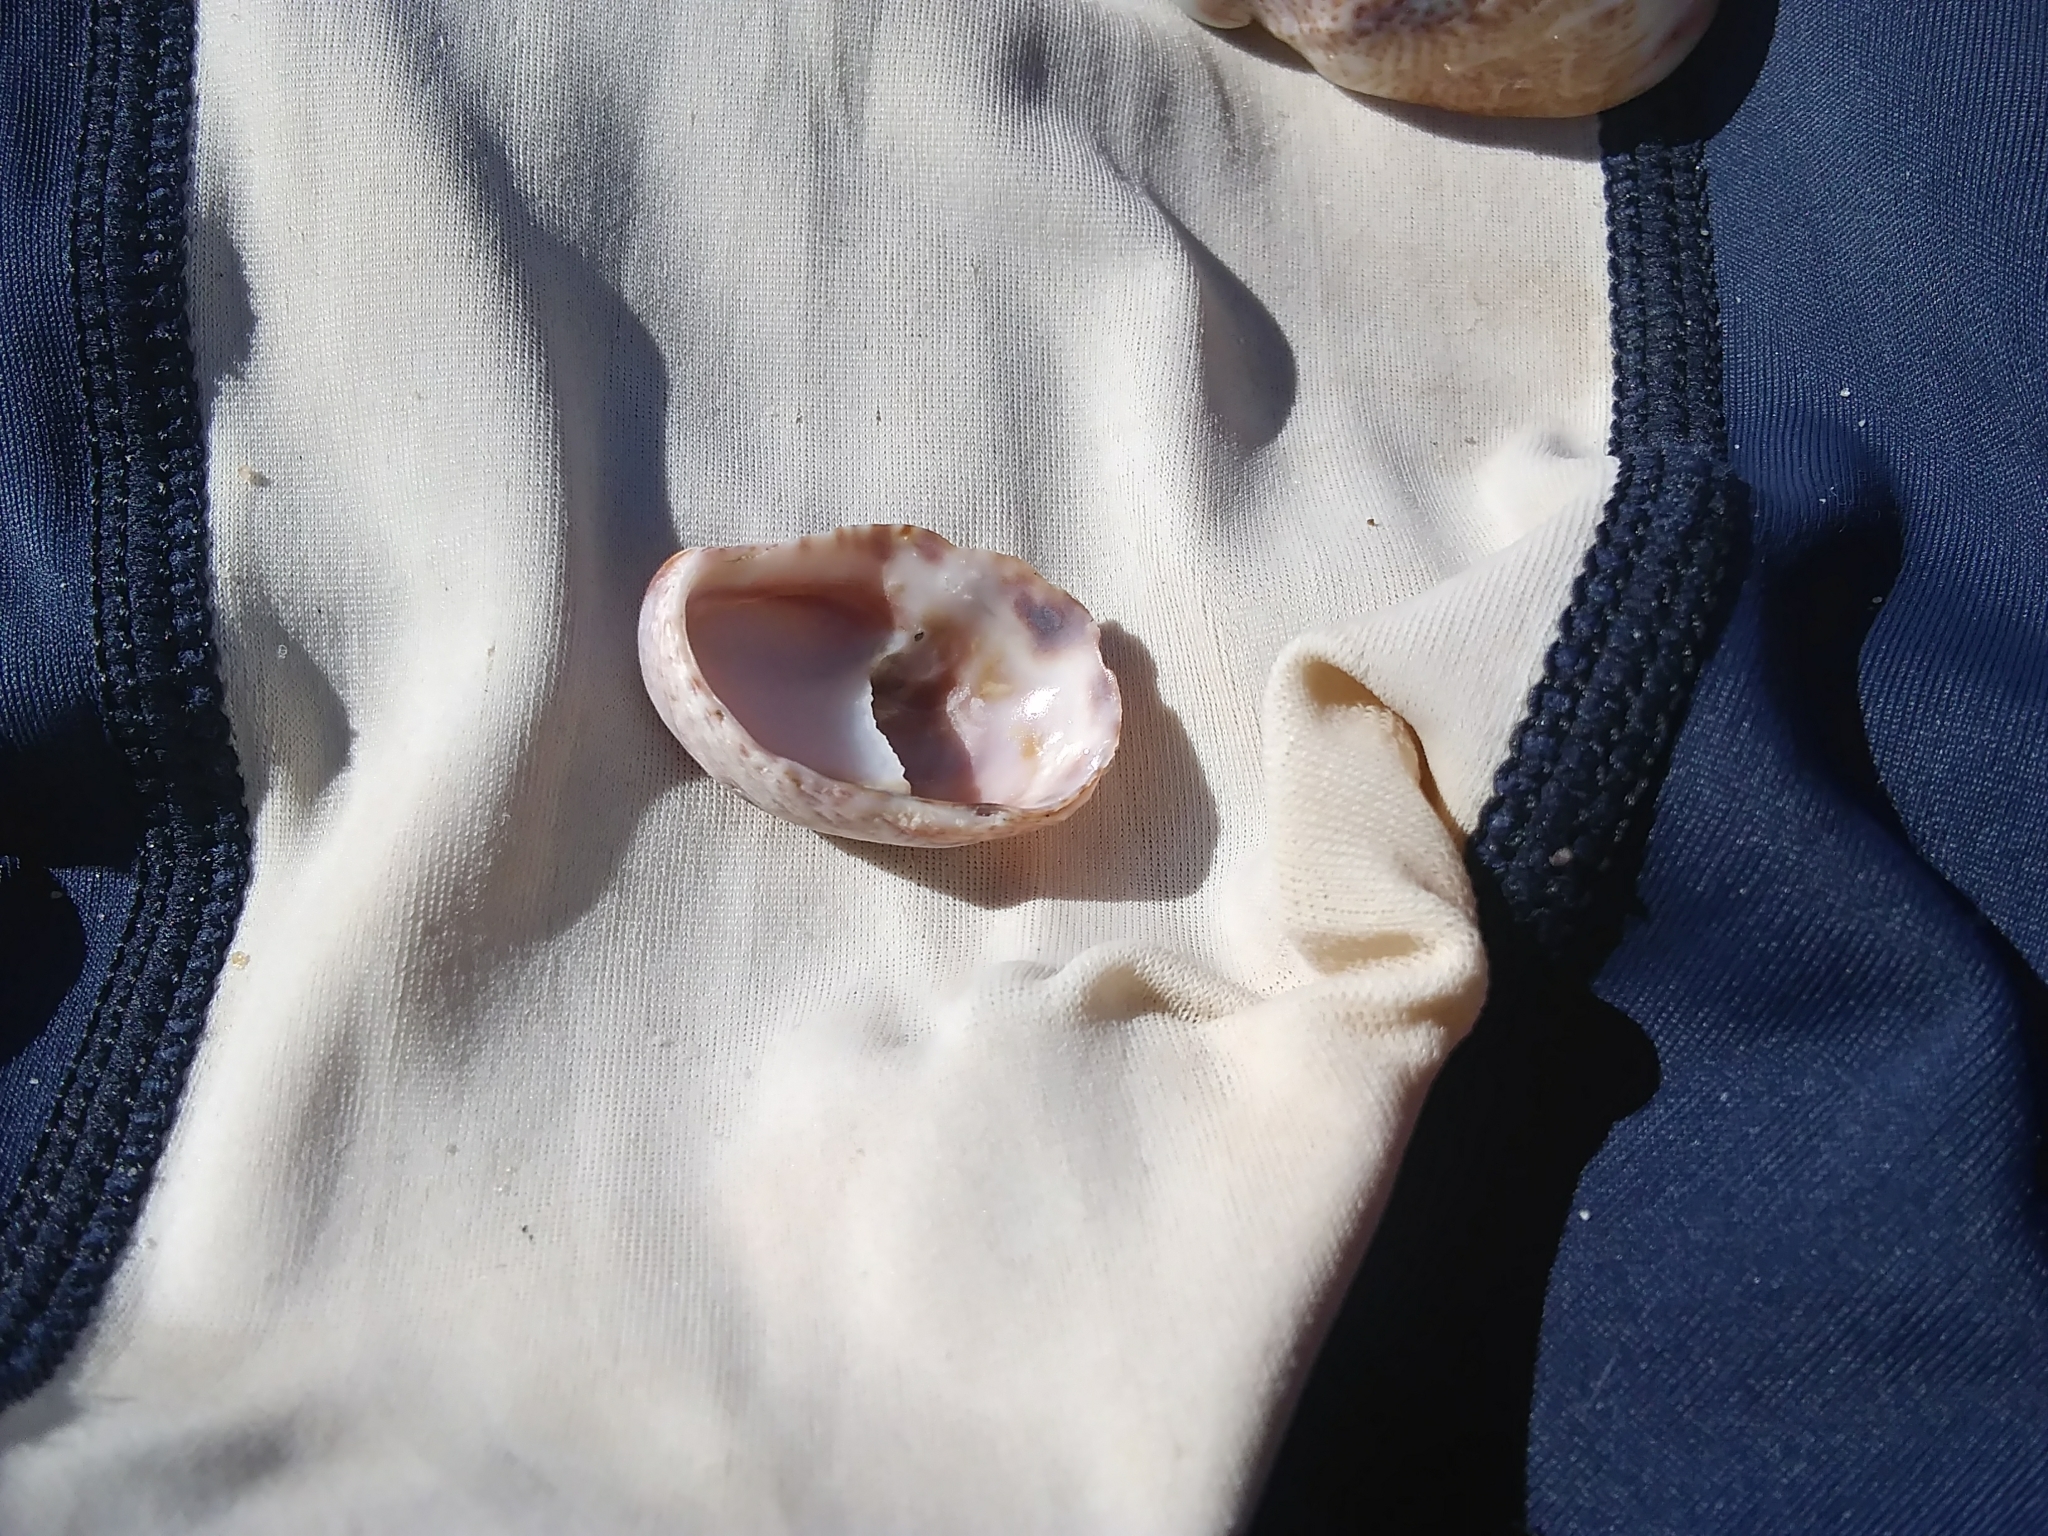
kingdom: Animalia
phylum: Mollusca
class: Gastropoda
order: Littorinimorpha
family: Calyptraeidae
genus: Crepidula
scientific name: Crepidula fornicata
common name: Slipper limpet
